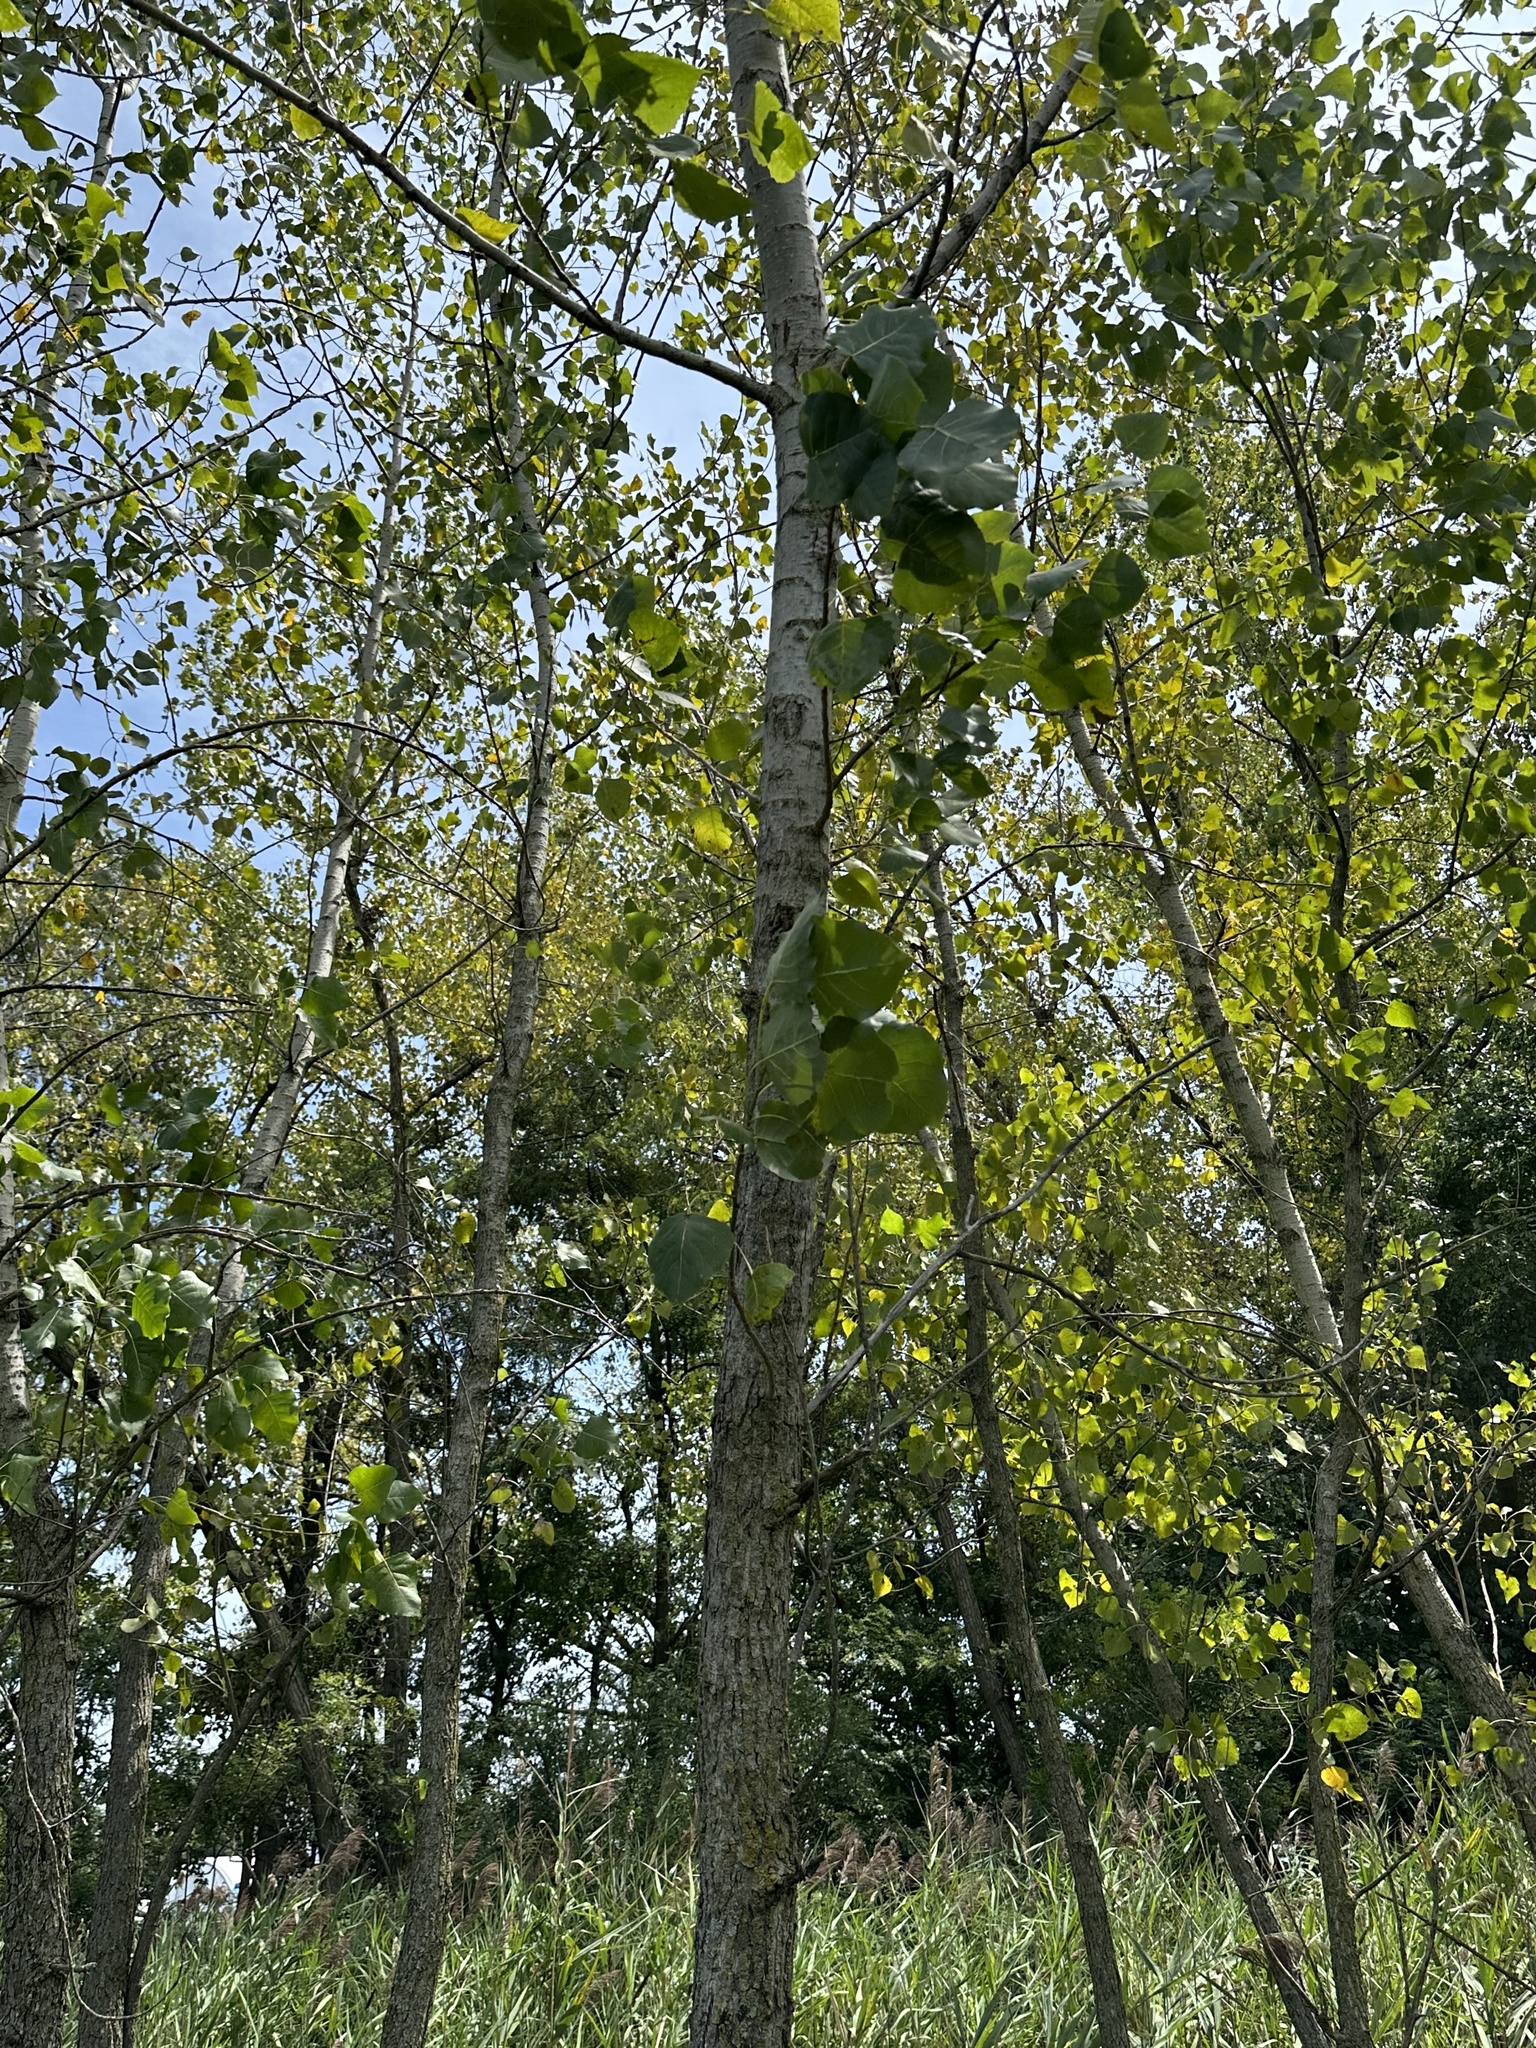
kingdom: Plantae
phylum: Tracheophyta
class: Magnoliopsida
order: Malpighiales
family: Salicaceae
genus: Populus
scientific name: Populus deltoides
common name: Eastern cottonwood
